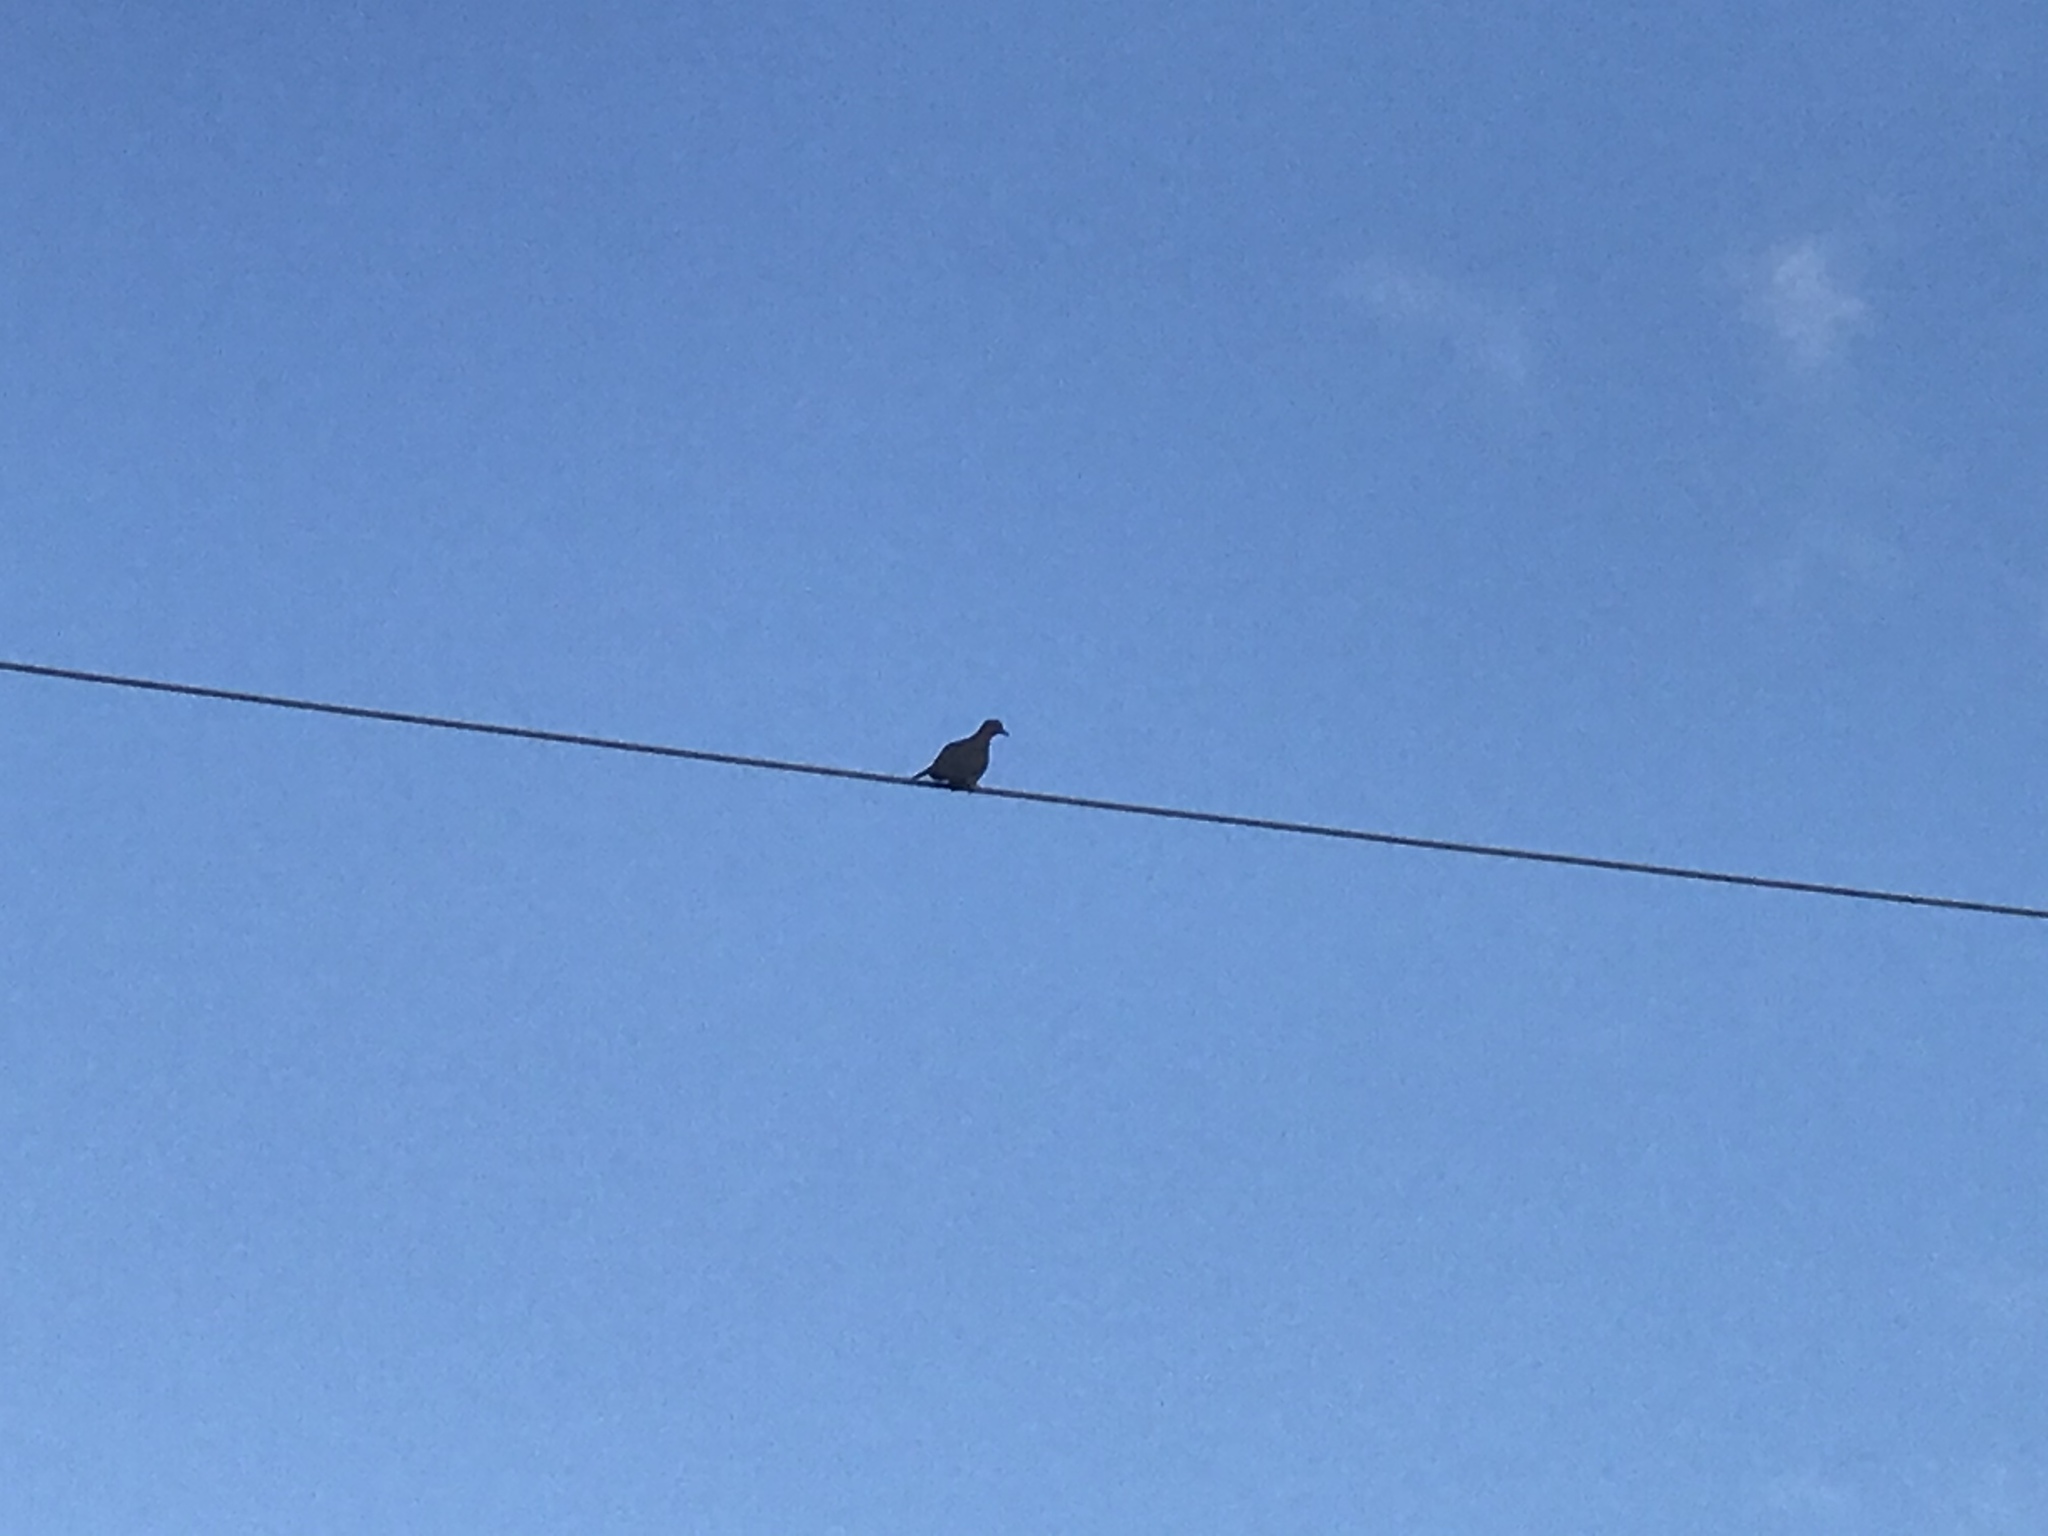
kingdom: Animalia
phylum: Chordata
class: Aves
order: Columbiformes
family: Columbidae
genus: Zenaida
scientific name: Zenaida macroura
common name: Mourning dove
